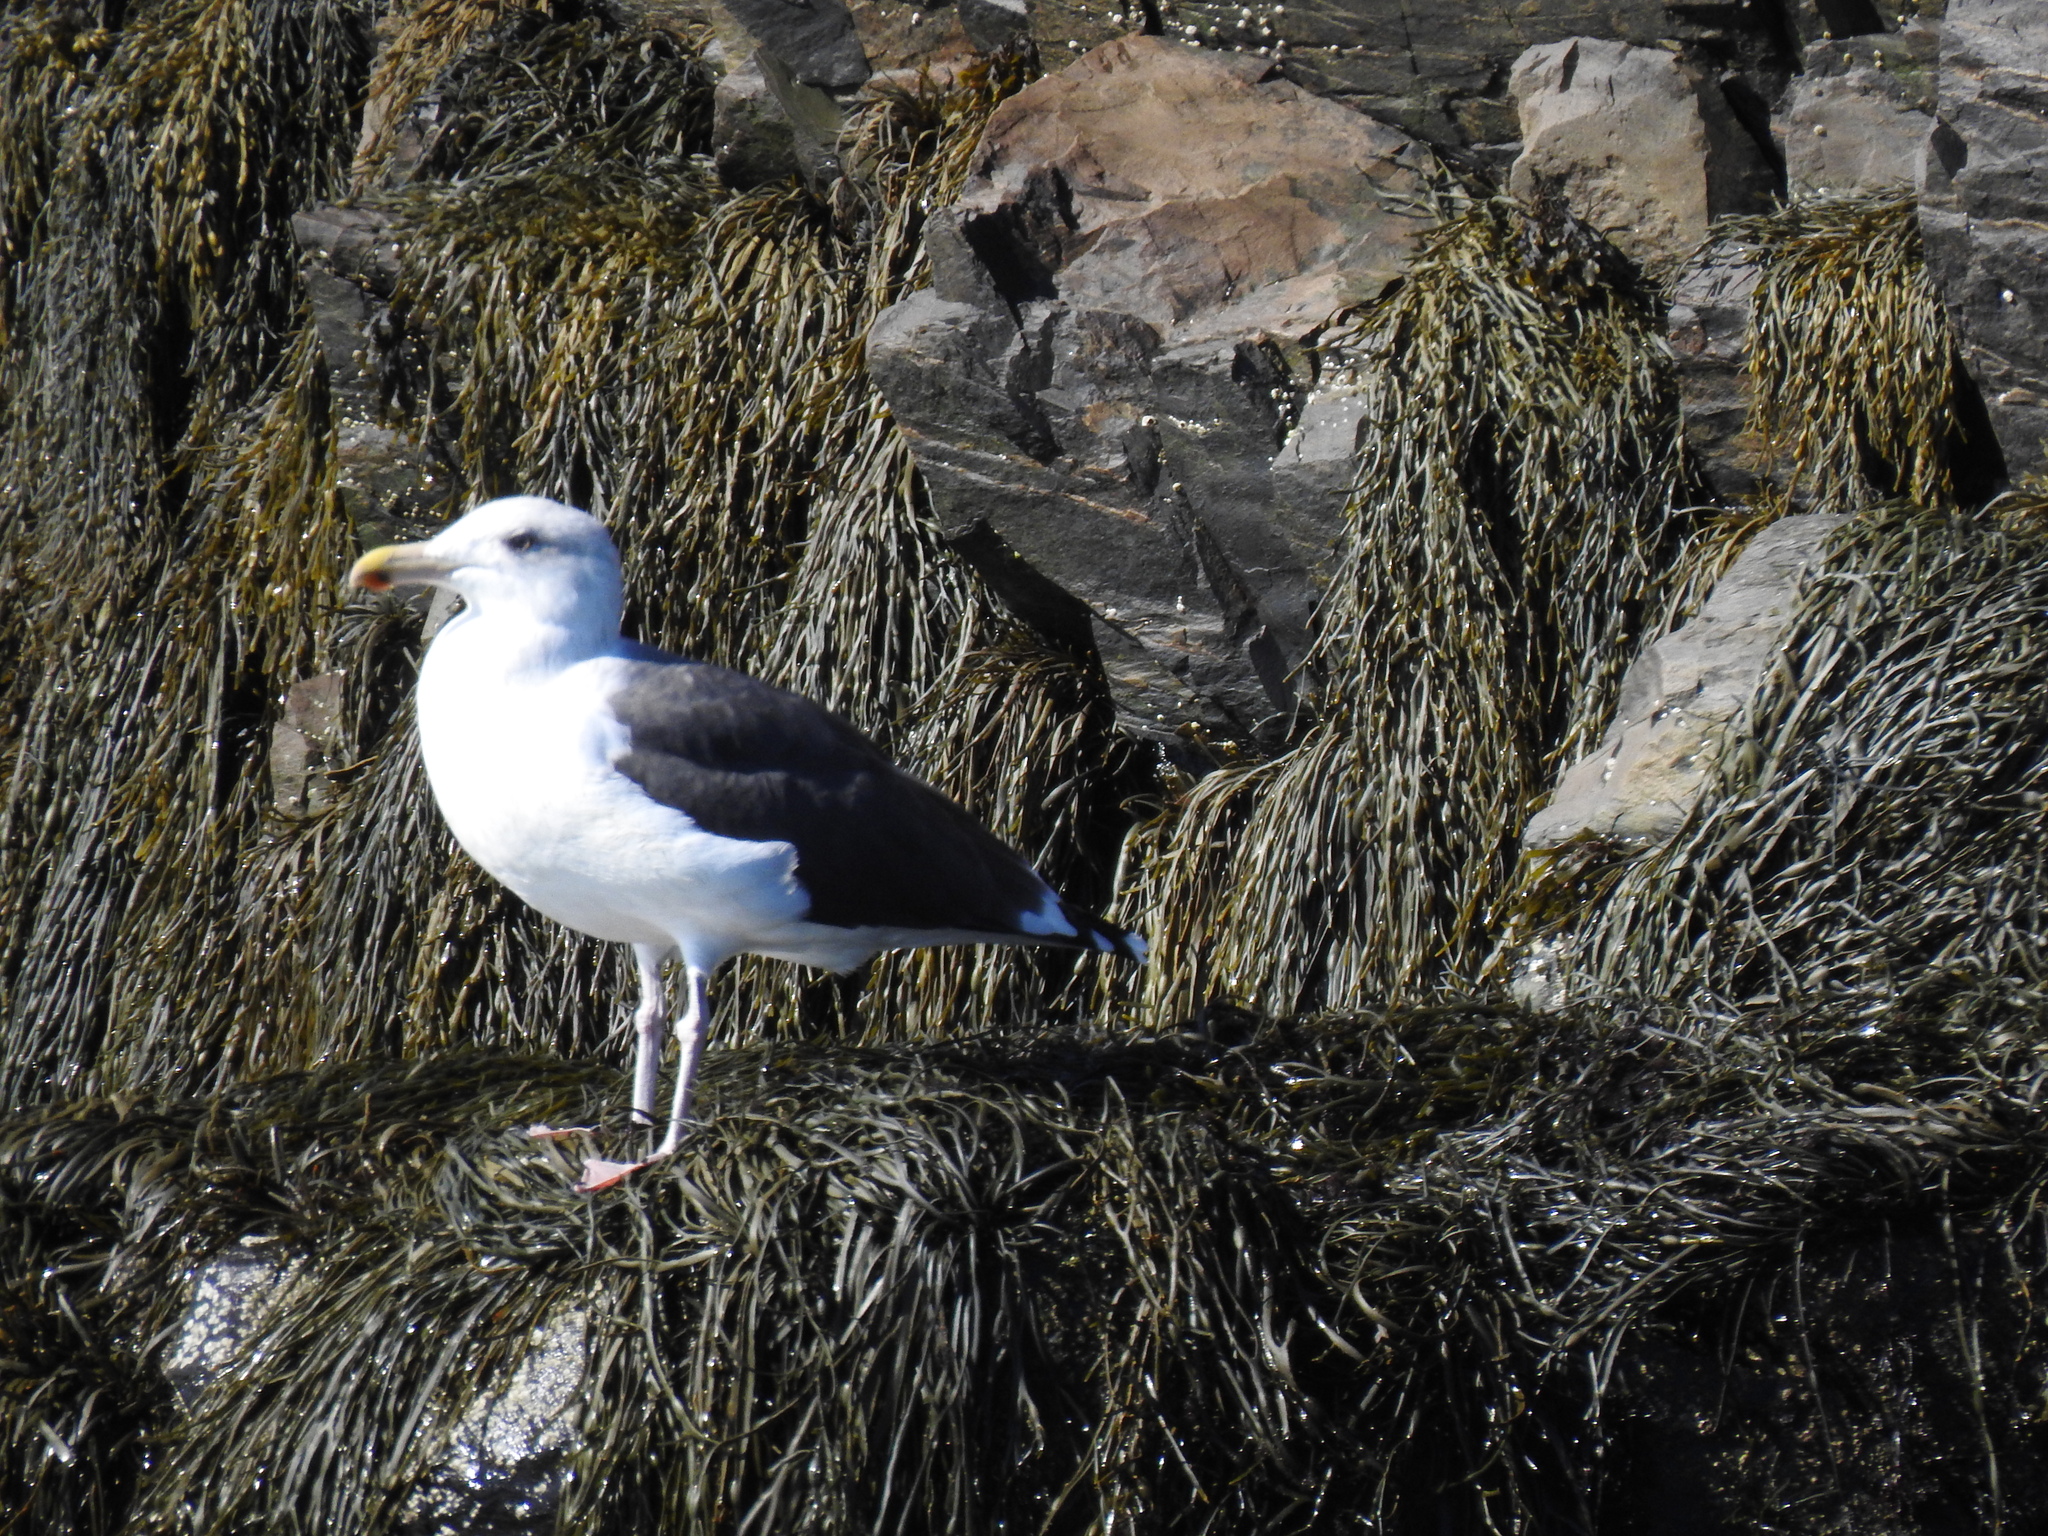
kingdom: Animalia
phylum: Chordata
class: Aves
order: Charadriiformes
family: Laridae
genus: Larus
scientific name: Larus marinus
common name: Great black-backed gull
